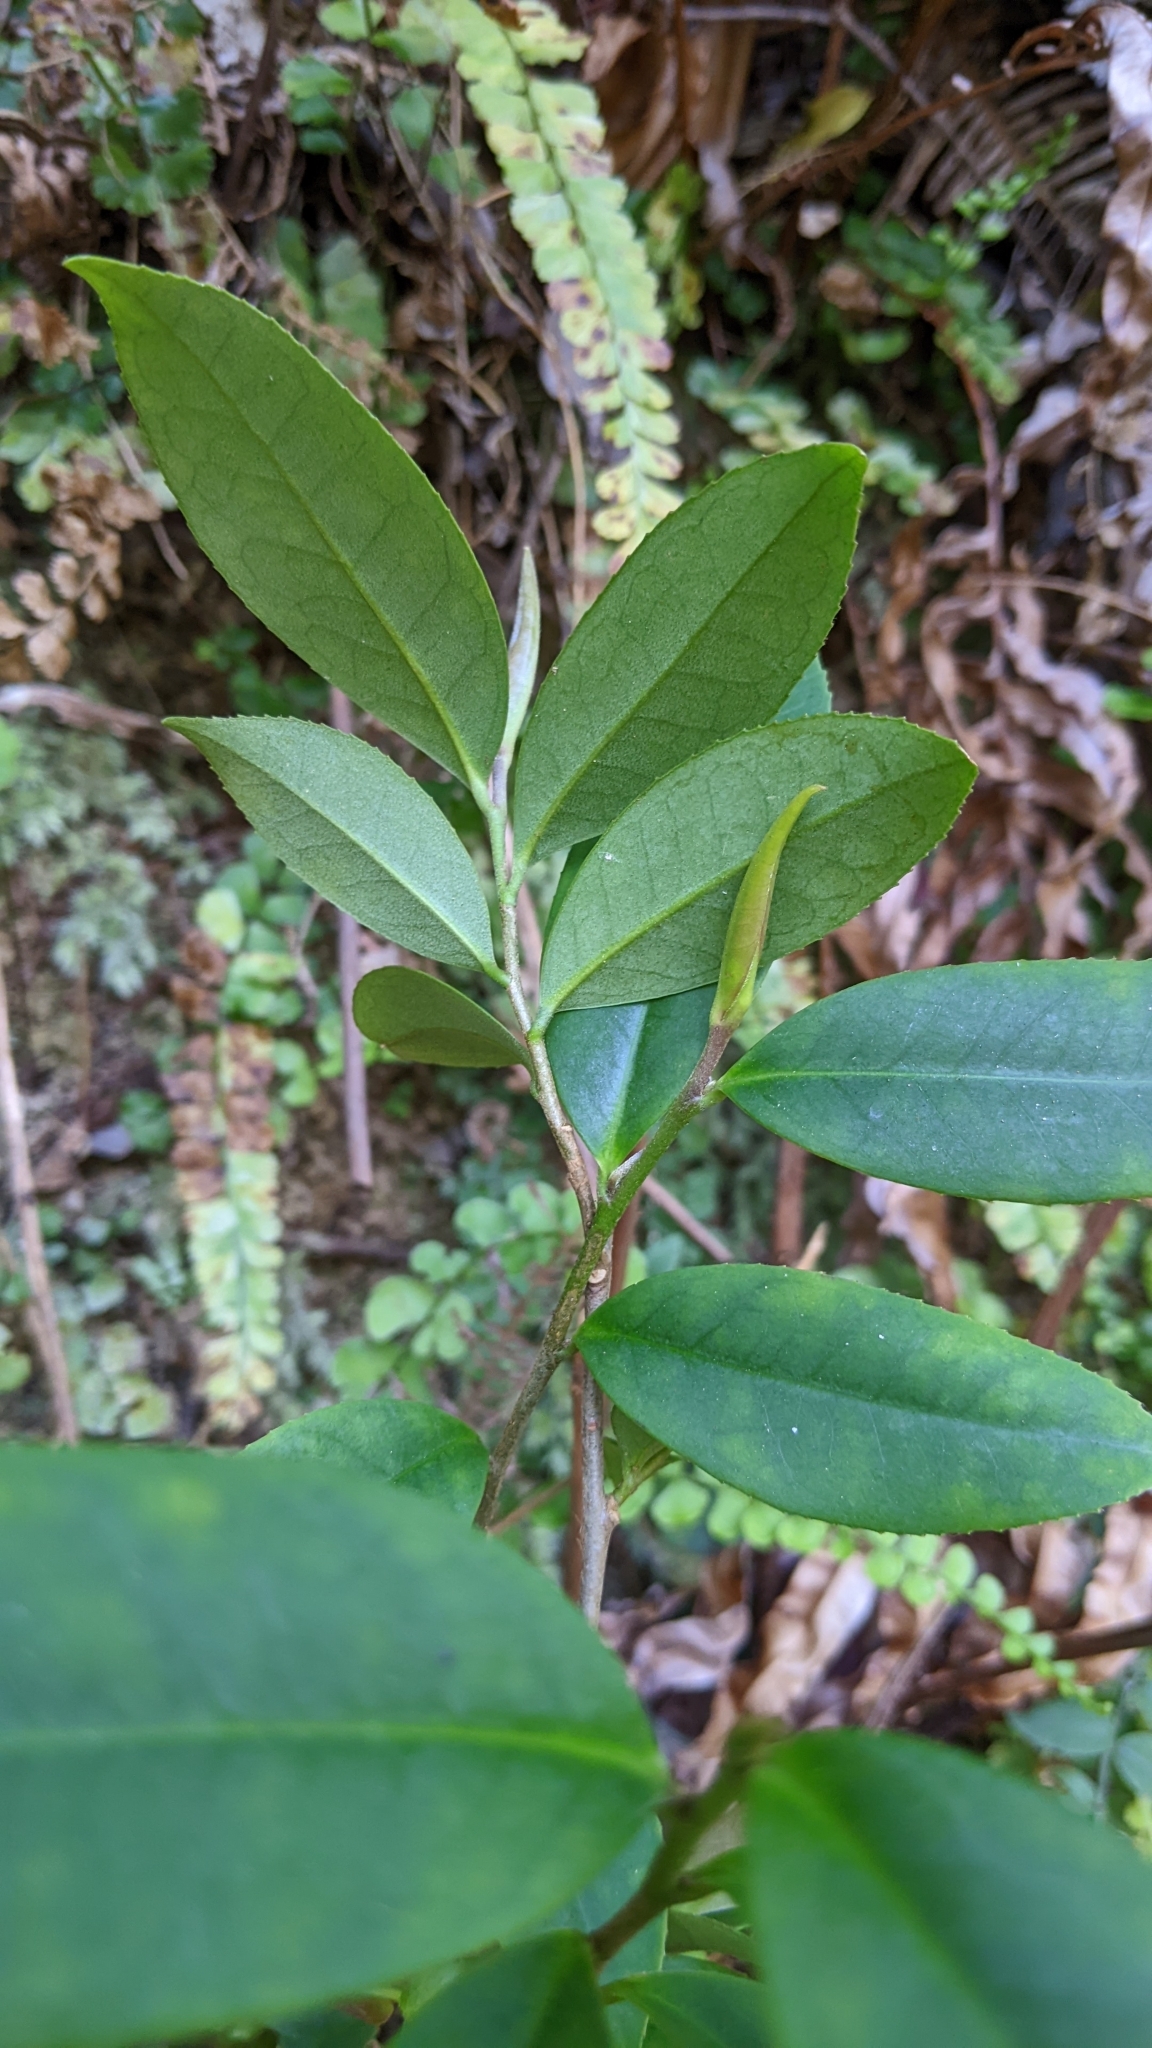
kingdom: Plantae
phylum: Tracheophyta
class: Magnoliopsida
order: Ericales
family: Pentaphylacaceae
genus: Adinandra
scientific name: Adinandra formosana
